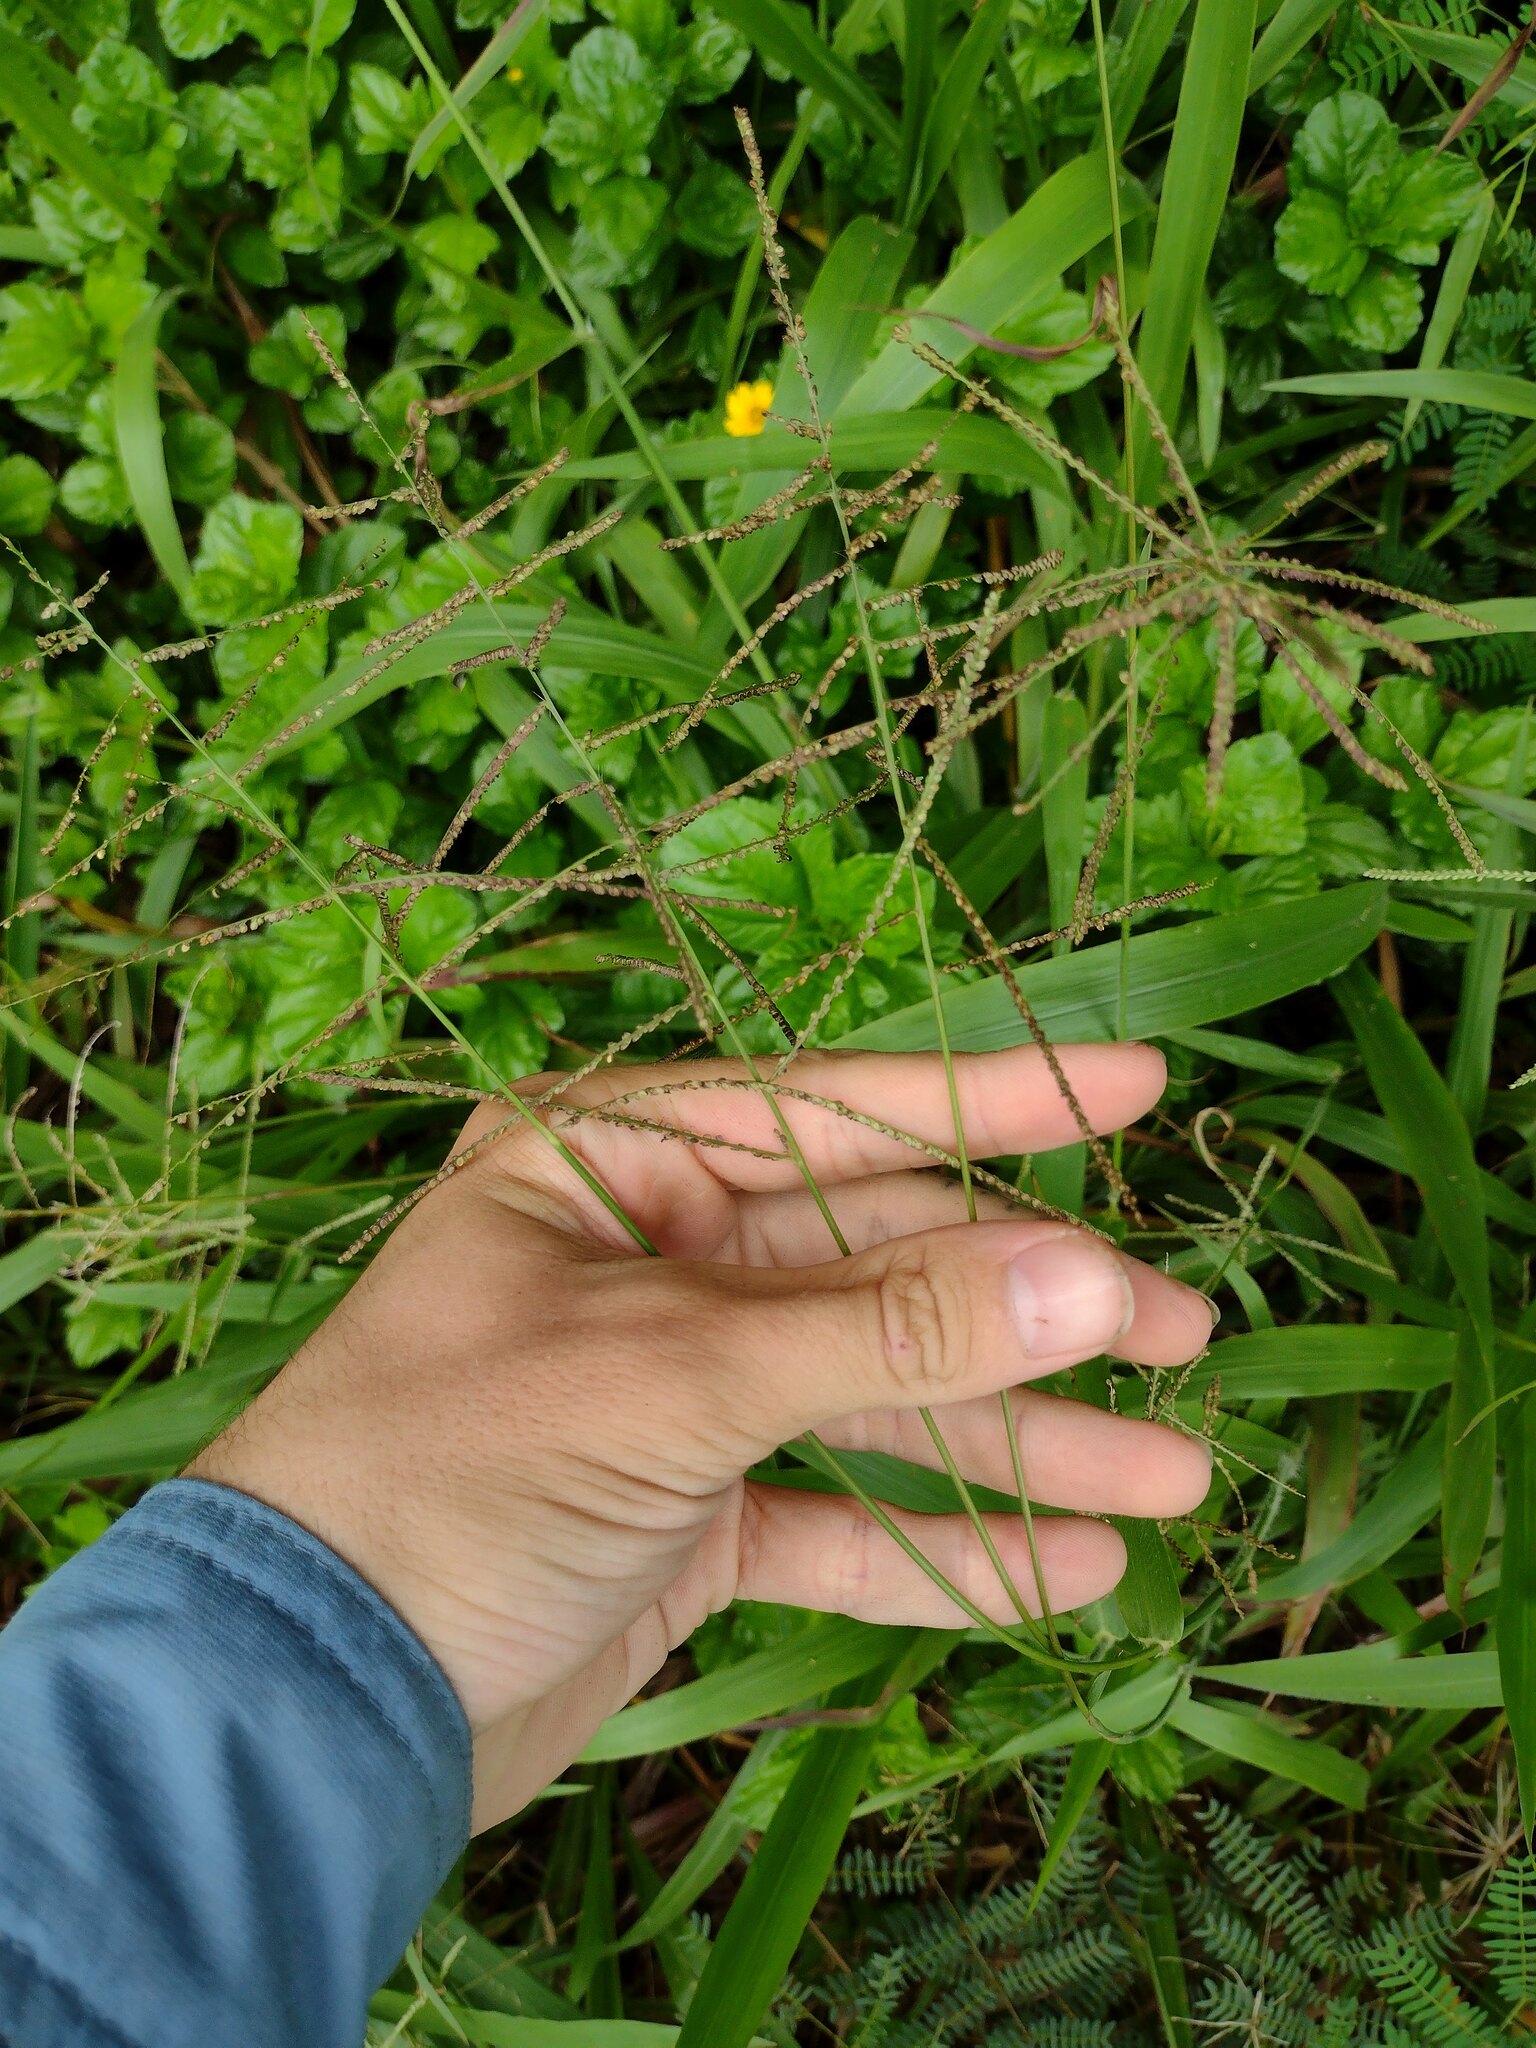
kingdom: Plantae
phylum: Tracheophyta
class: Liliopsida
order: Poales
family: Poaceae
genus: Paspalum
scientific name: Paspalum paniculatum
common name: Arrocillo
